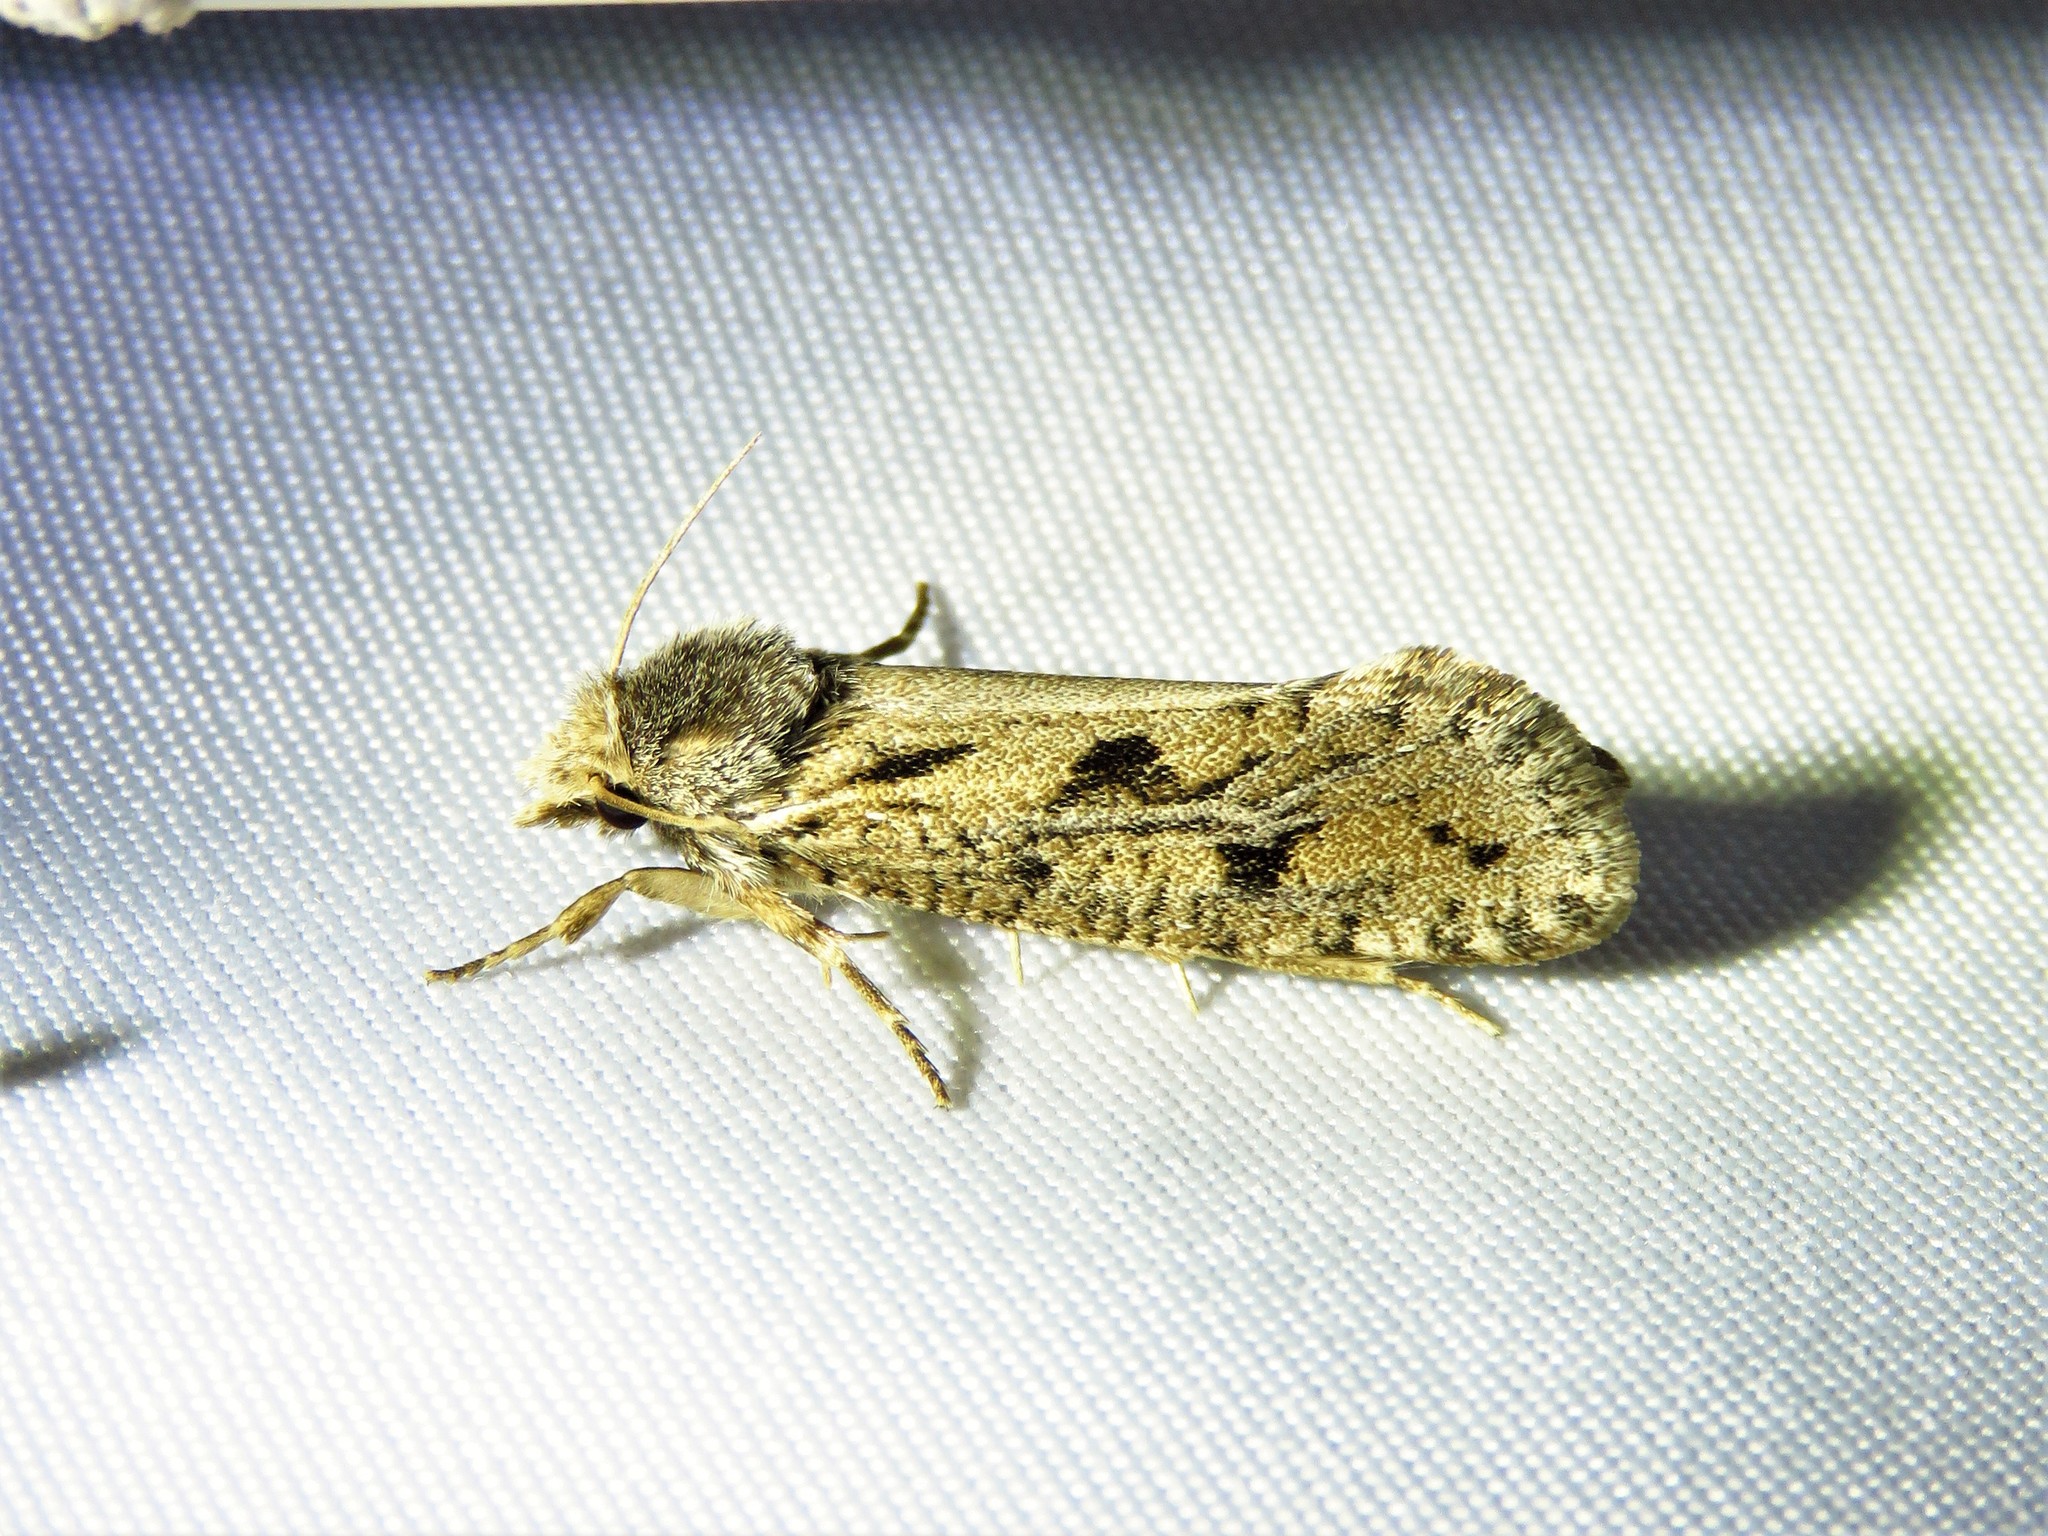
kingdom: Animalia
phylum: Arthropoda
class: Insecta
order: Lepidoptera
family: Tineidae
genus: Acrolophus
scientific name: Acrolophus popeanella
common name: Clemens' grass tubeworm moth
